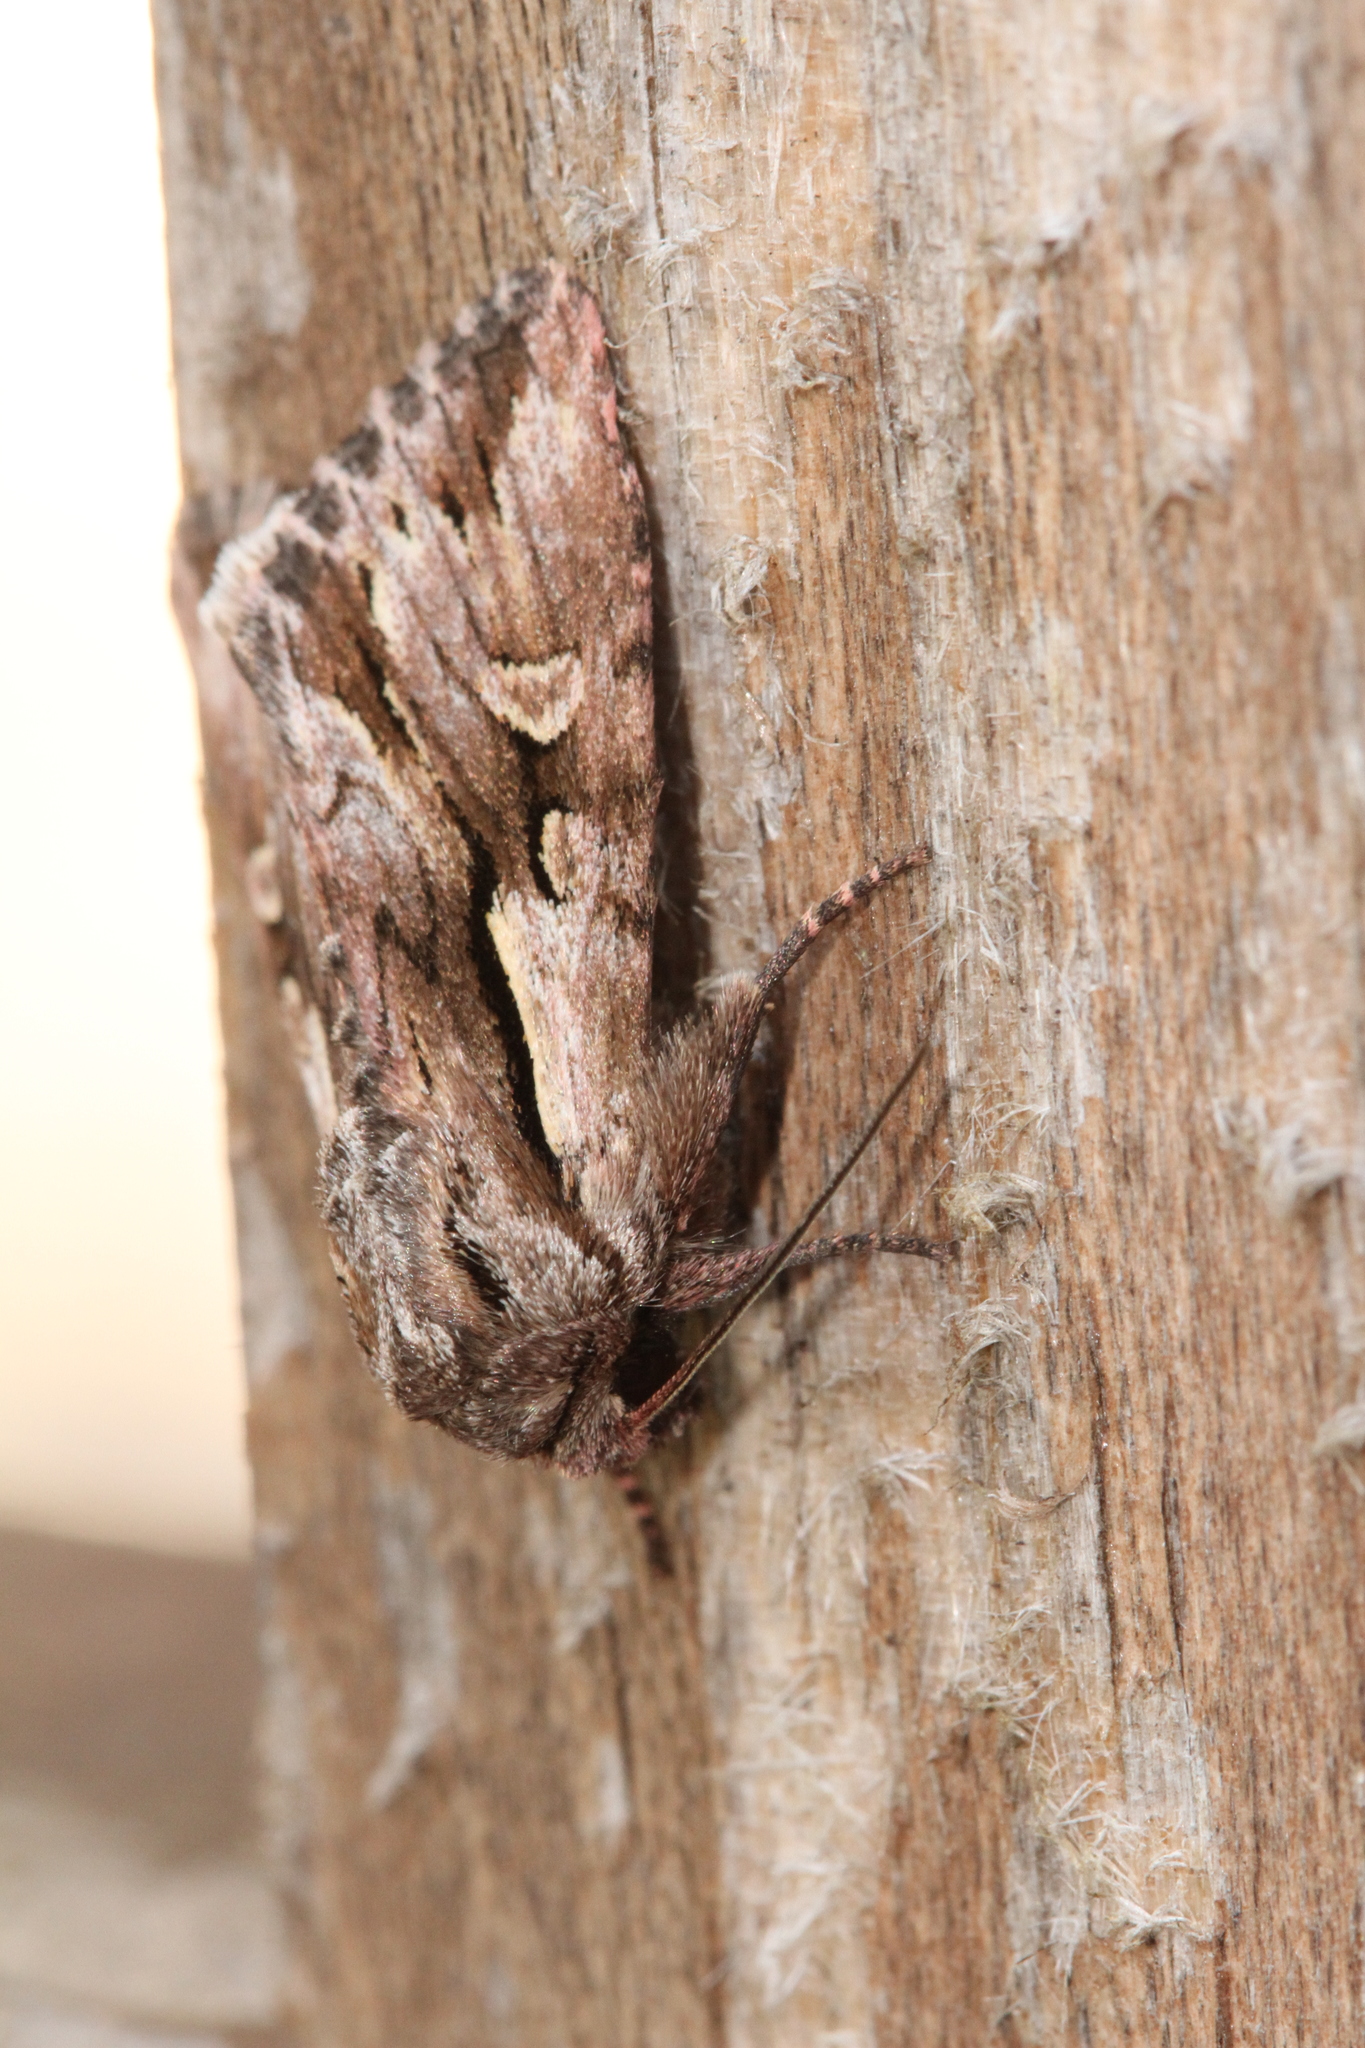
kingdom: Animalia
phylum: Arthropoda
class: Insecta
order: Lepidoptera
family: Noctuidae
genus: Chloantha
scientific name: Chloantha hyperici
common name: Pale-shouldered cloud
